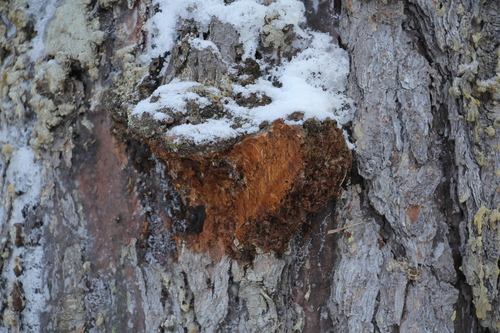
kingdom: Fungi
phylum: Basidiomycota
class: Agaricomycetes
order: Hymenochaetales
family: Hymenochaetaceae
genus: Porodaedalea
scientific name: Porodaedalea pini
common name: Pine bracket
